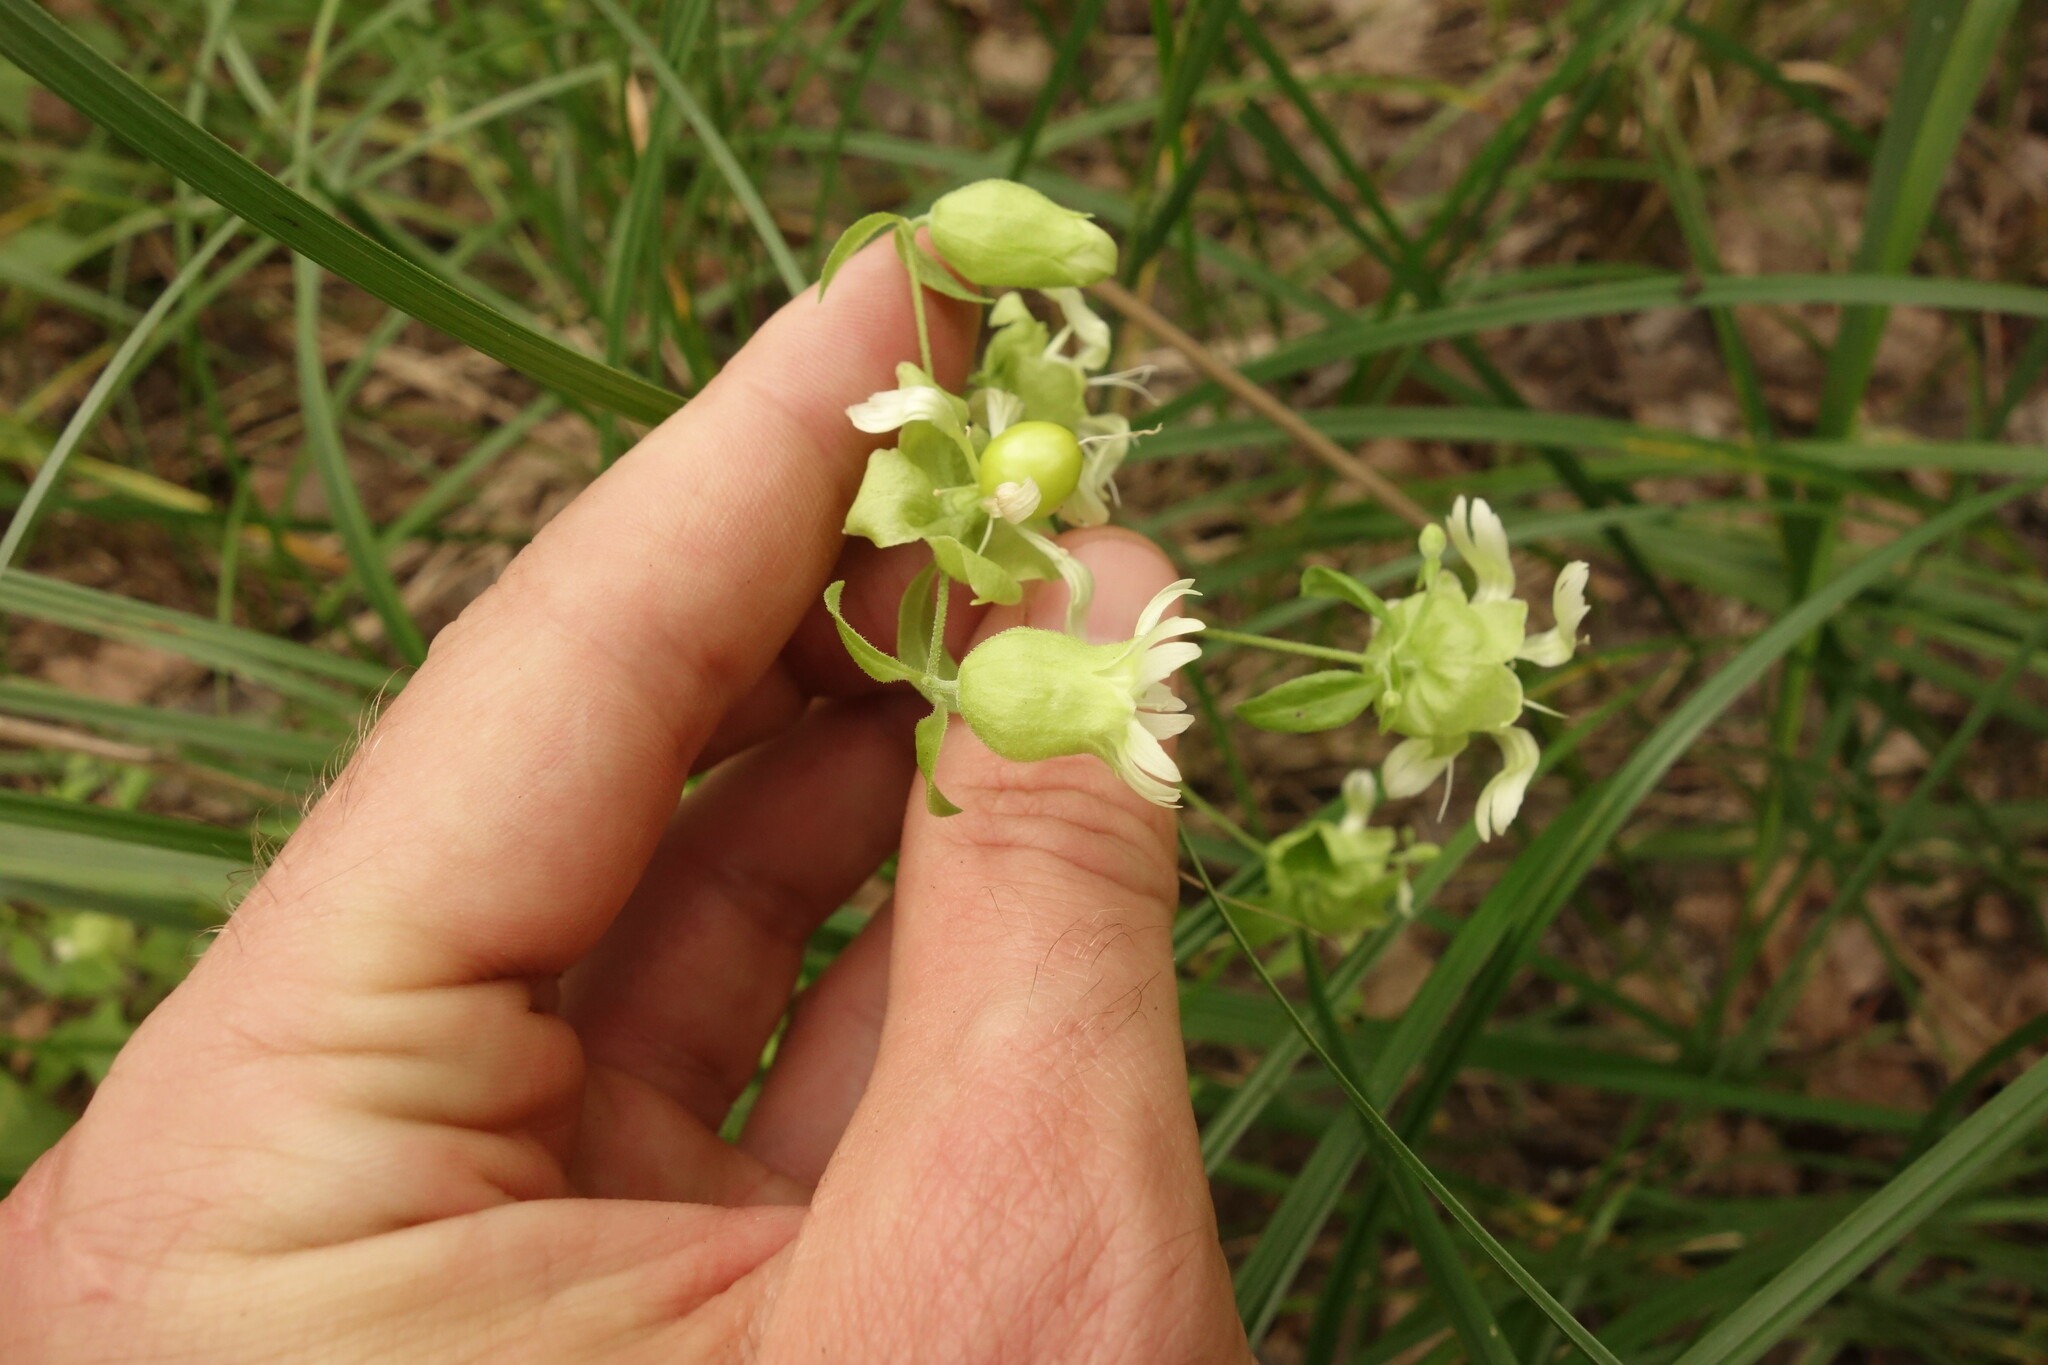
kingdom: Plantae
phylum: Tracheophyta
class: Magnoliopsida
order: Caryophyllales
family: Caryophyllaceae
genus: Silene
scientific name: Silene baccifera
